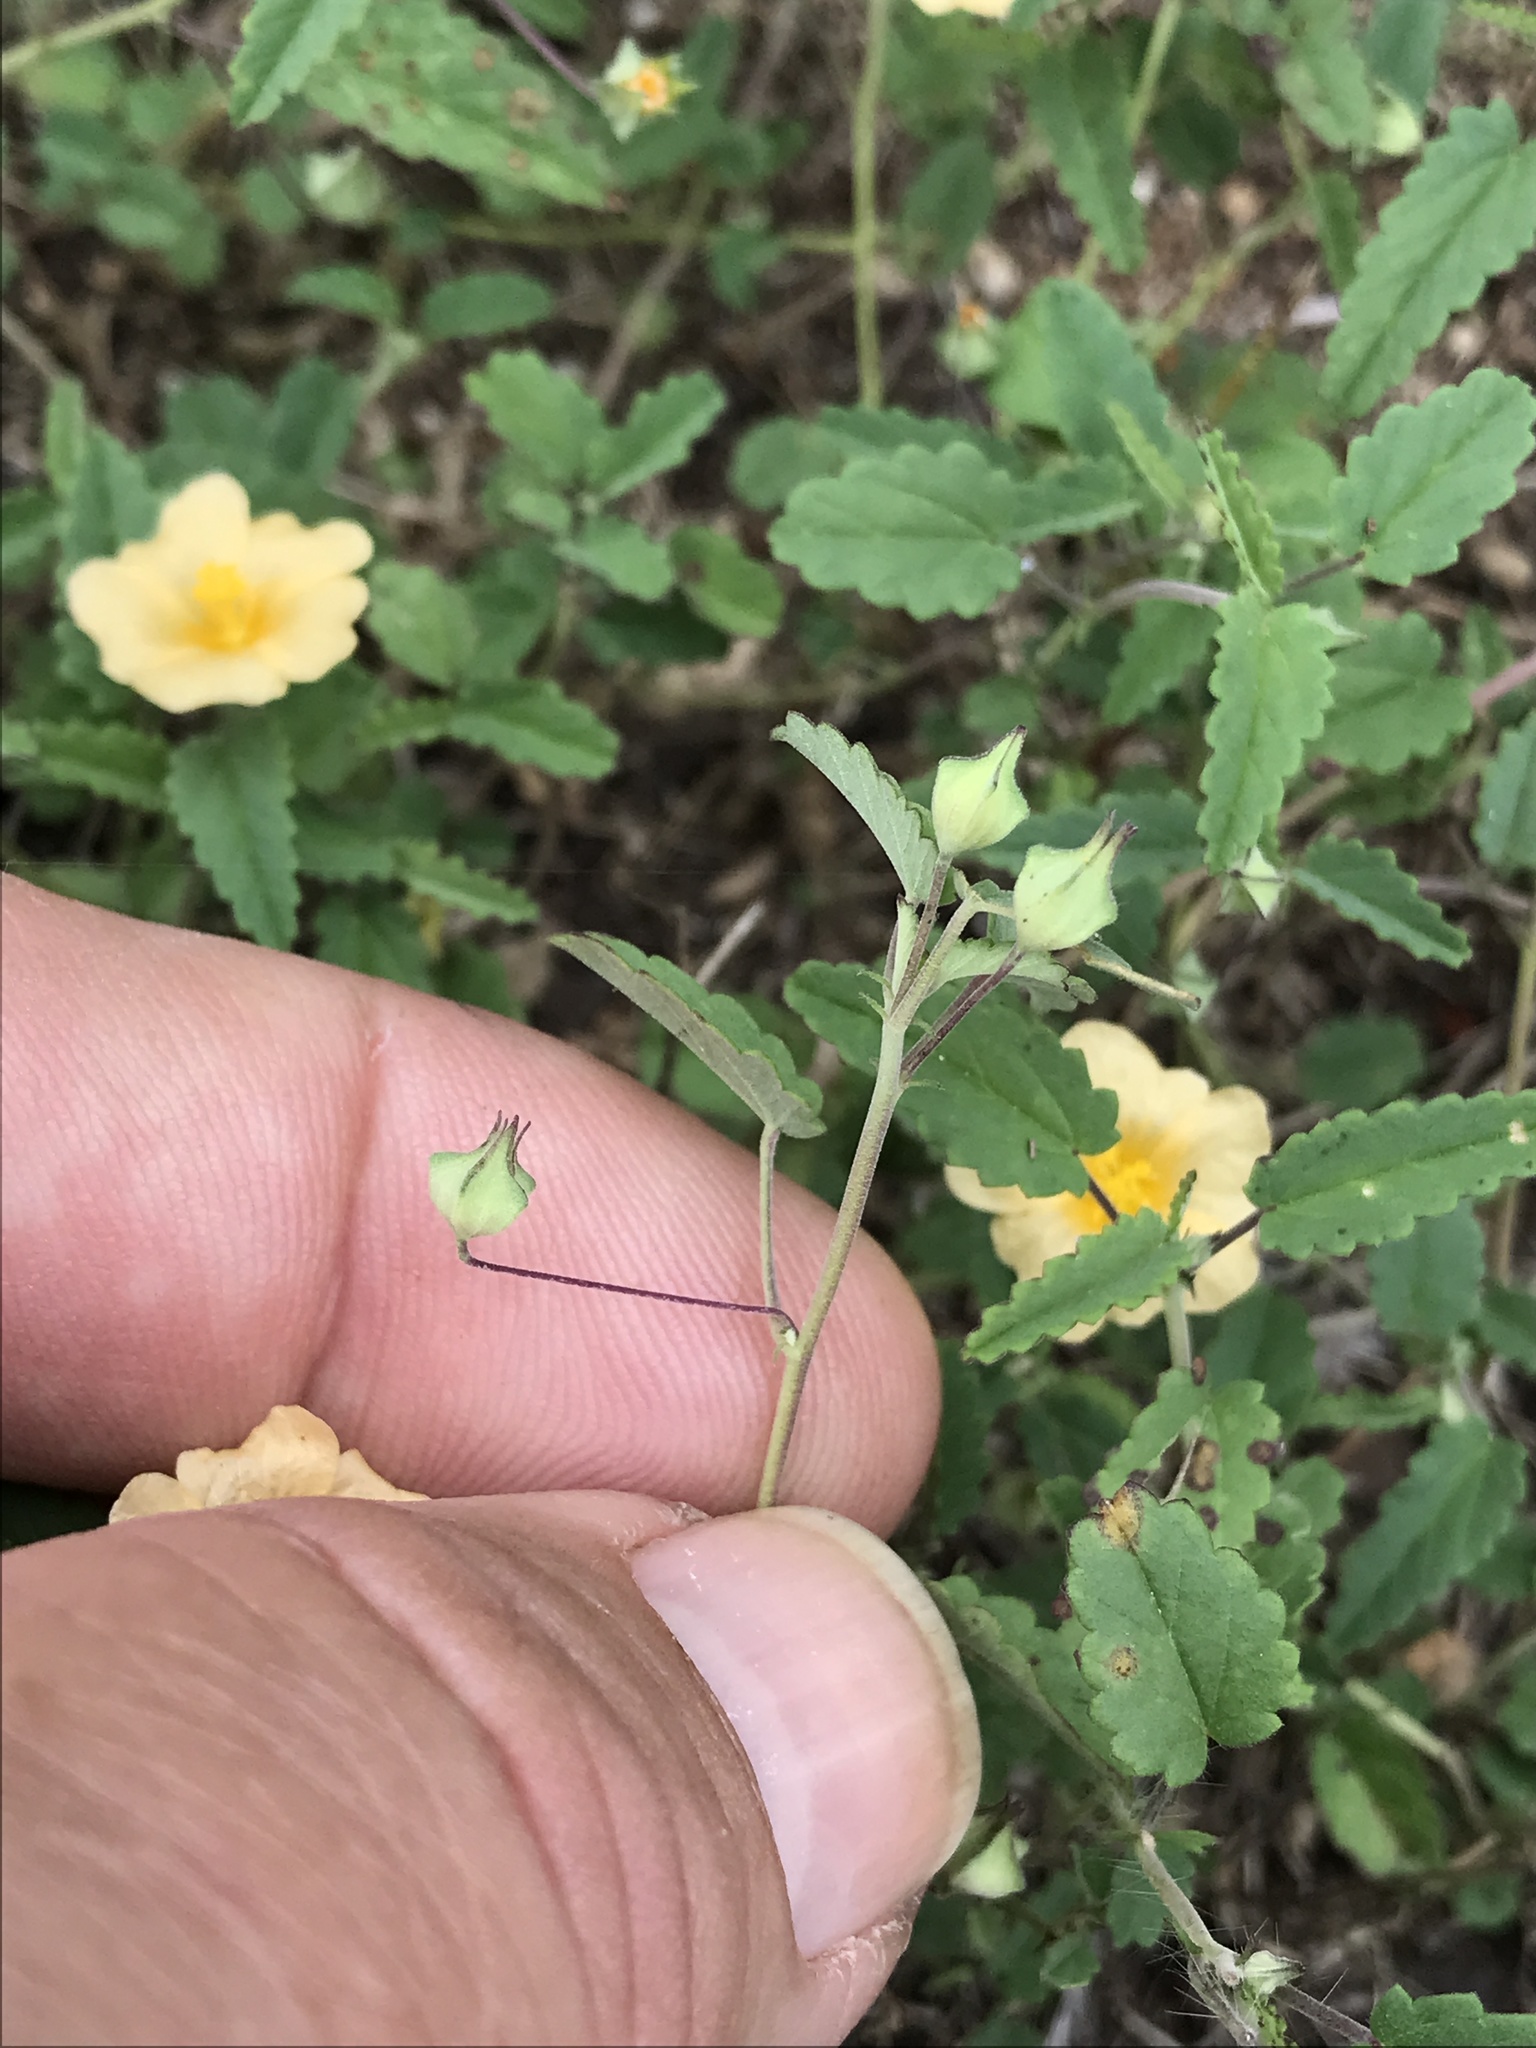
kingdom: Plantae
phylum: Tracheophyta
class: Magnoliopsida
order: Malvales
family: Malvaceae
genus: Sida
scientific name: Sida abutilifolia
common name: Spreading fanpetals
